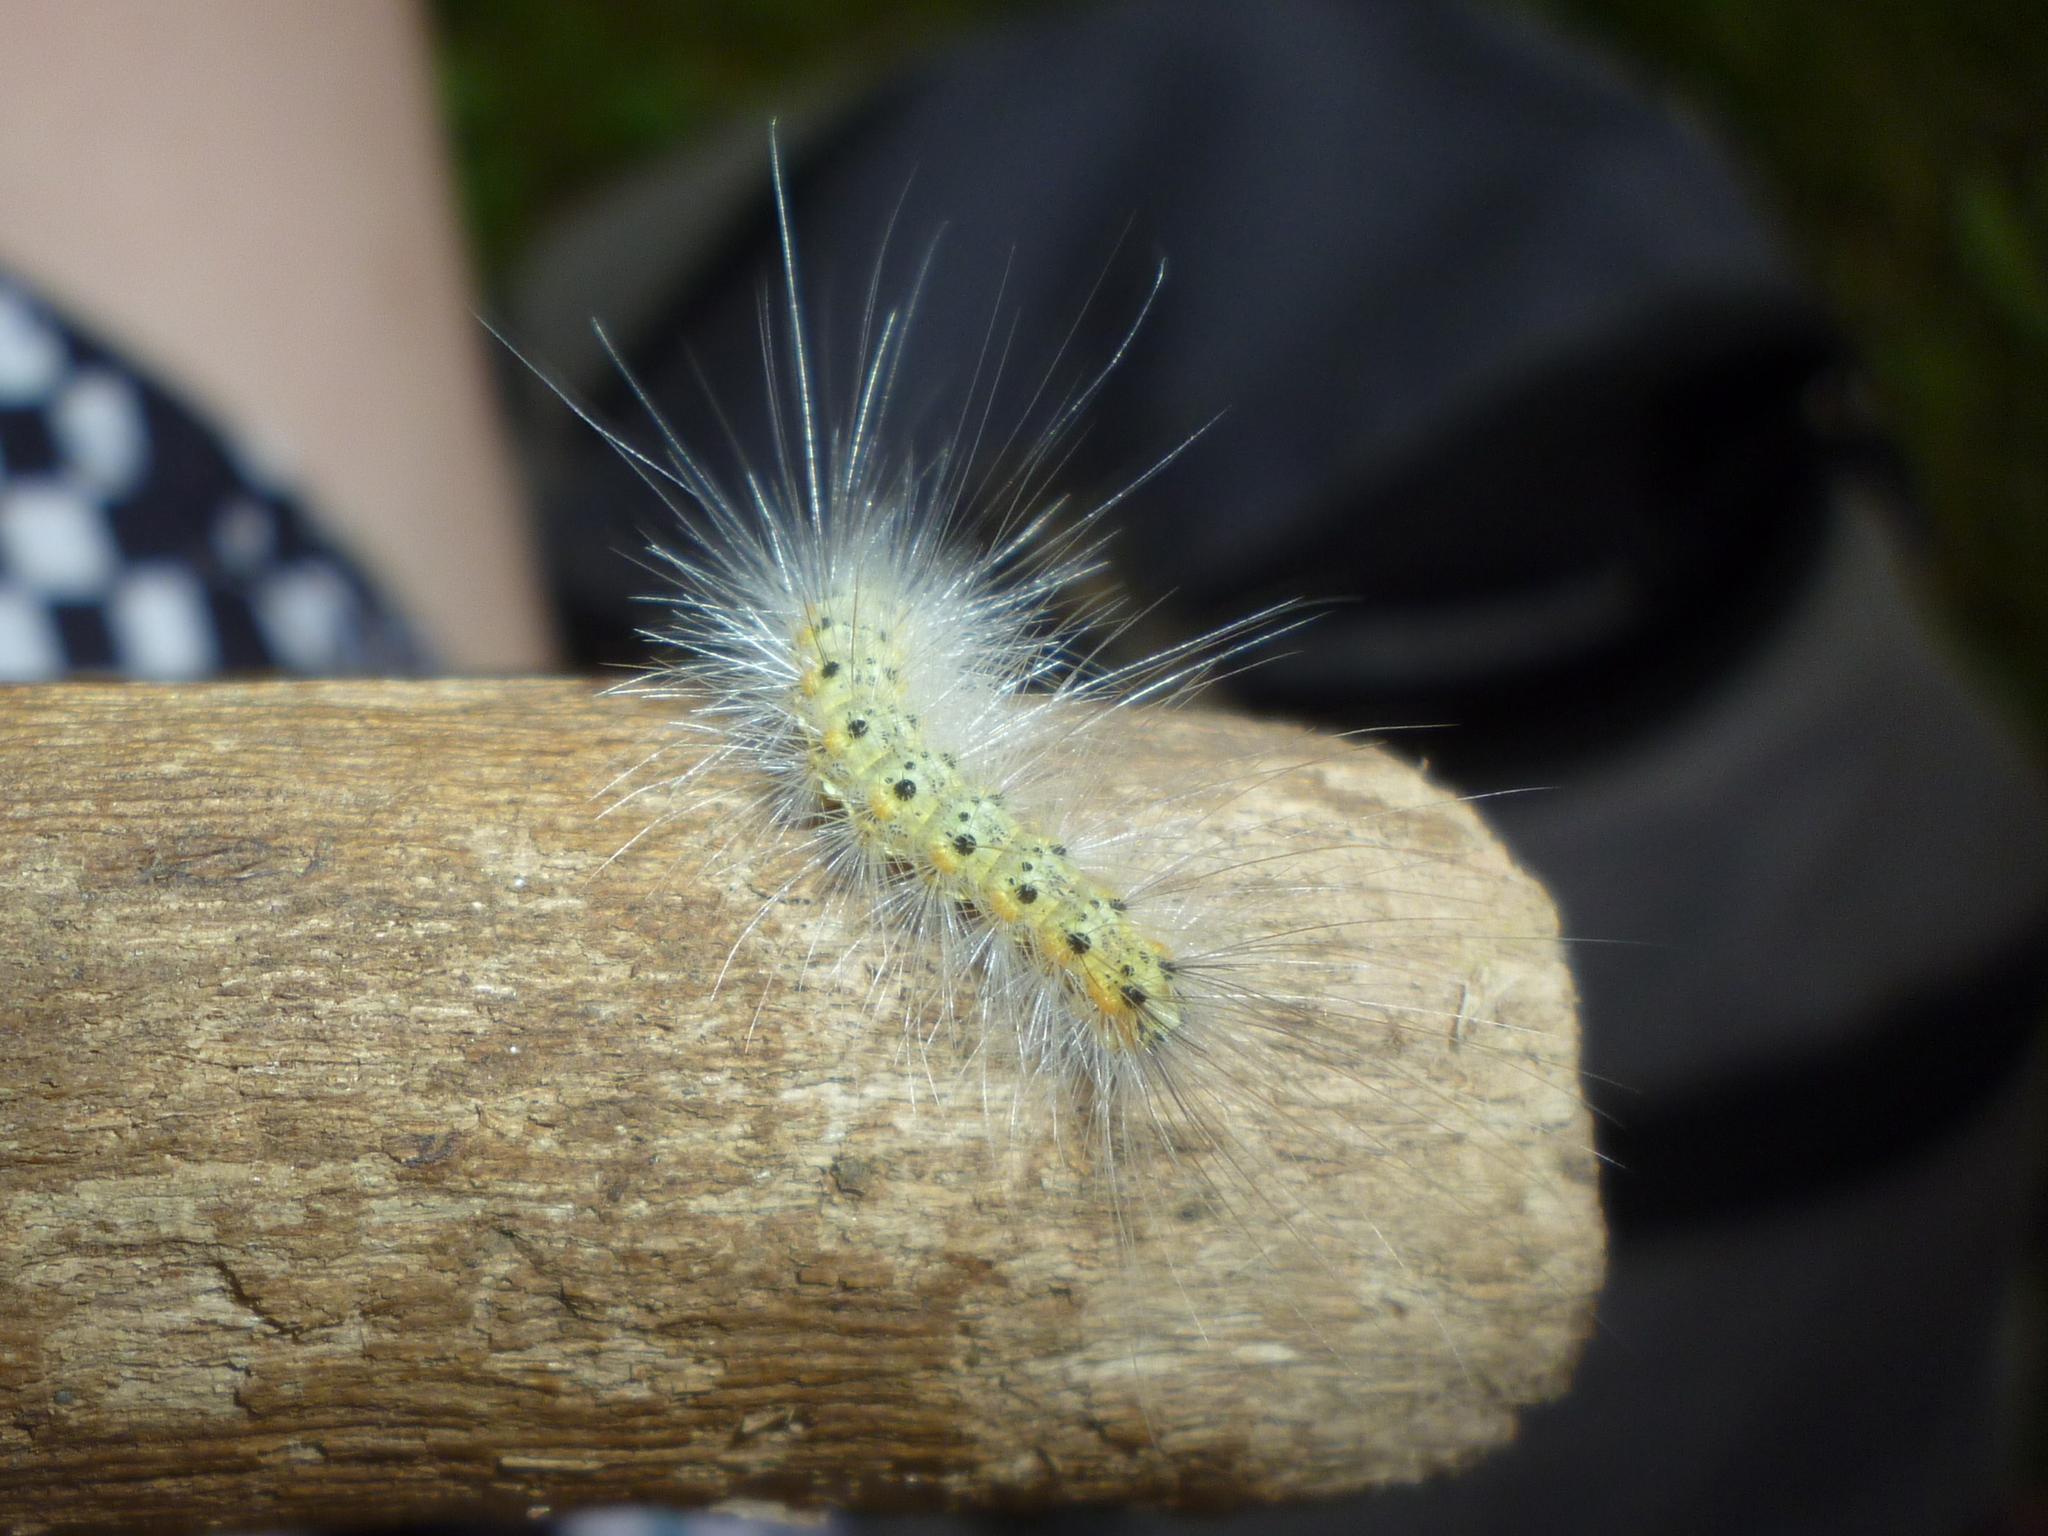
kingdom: Animalia
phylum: Arthropoda
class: Insecta
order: Lepidoptera
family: Erebidae
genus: Hyphantria
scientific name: Hyphantria cunea
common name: American white moth
